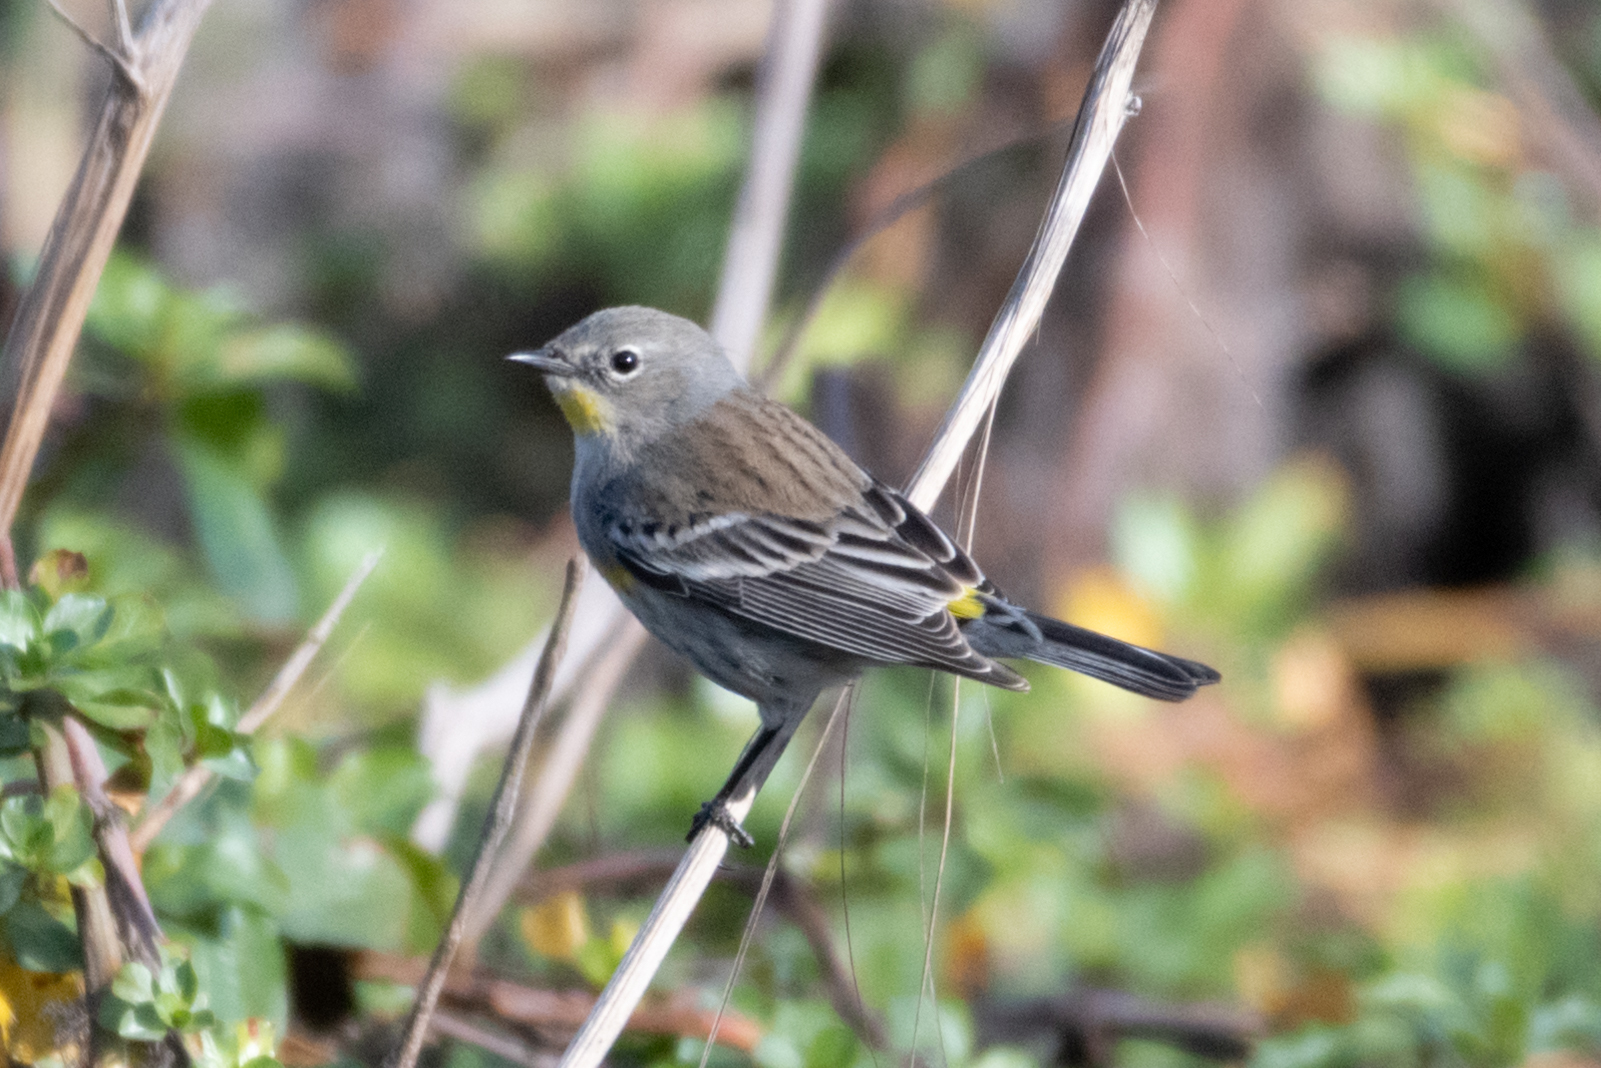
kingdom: Animalia
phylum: Chordata
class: Aves
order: Passeriformes
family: Parulidae
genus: Setophaga
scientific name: Setophaga coronata
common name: Myrtle warbler
